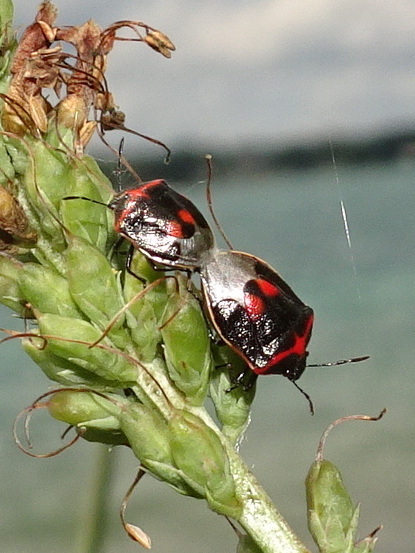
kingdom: Animalia
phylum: Arthropoda
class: Insecta
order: Hemiptera
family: Pentatomidae
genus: Cosmopepla
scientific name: Cosmopepla lintneriana
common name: Twice-stabbed stink bug
